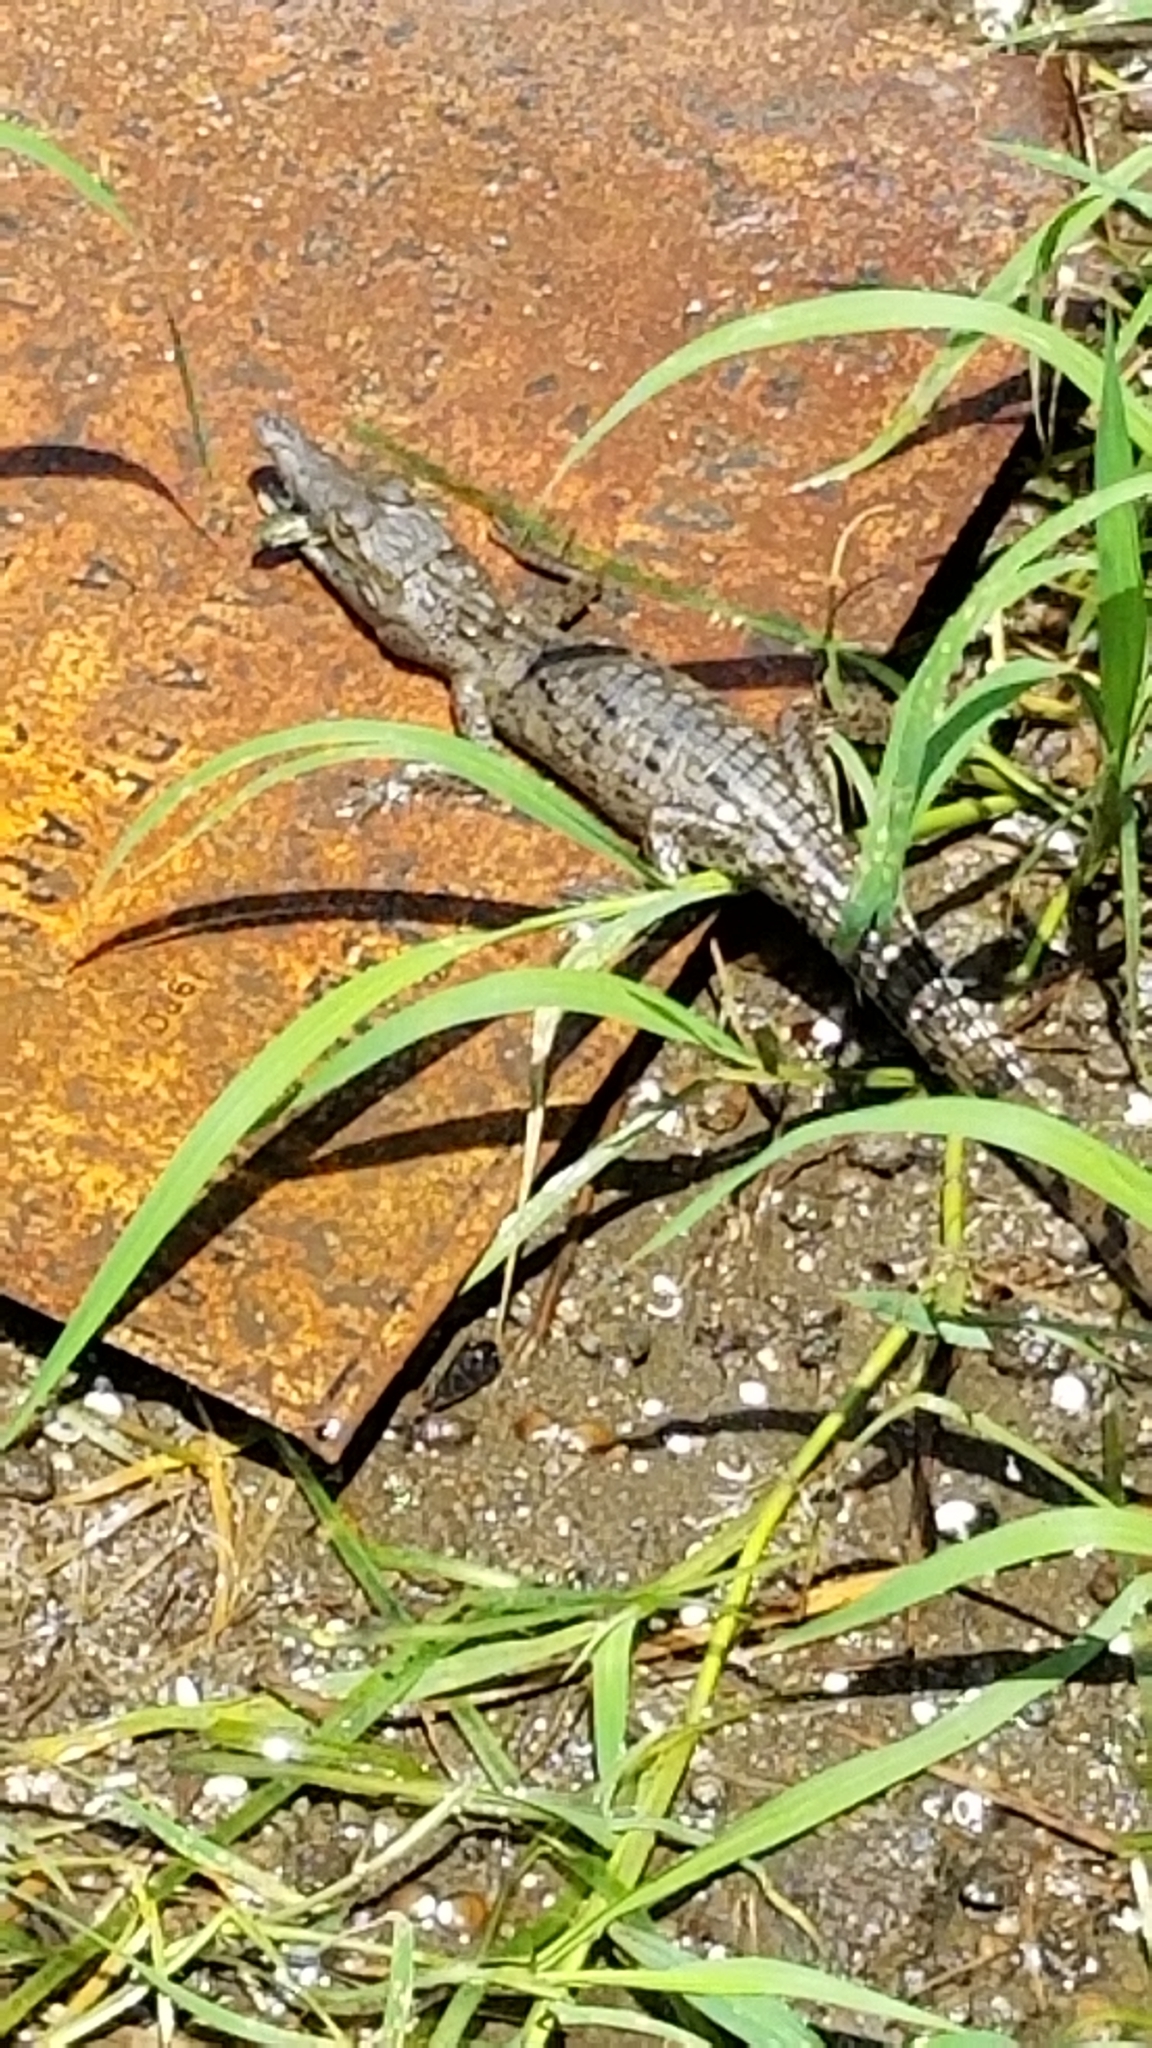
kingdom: Animalia
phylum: Chordata
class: Crocodylia
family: Crocodylidae
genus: Crocodylus
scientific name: Crocodylus acutus
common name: American crocodile
